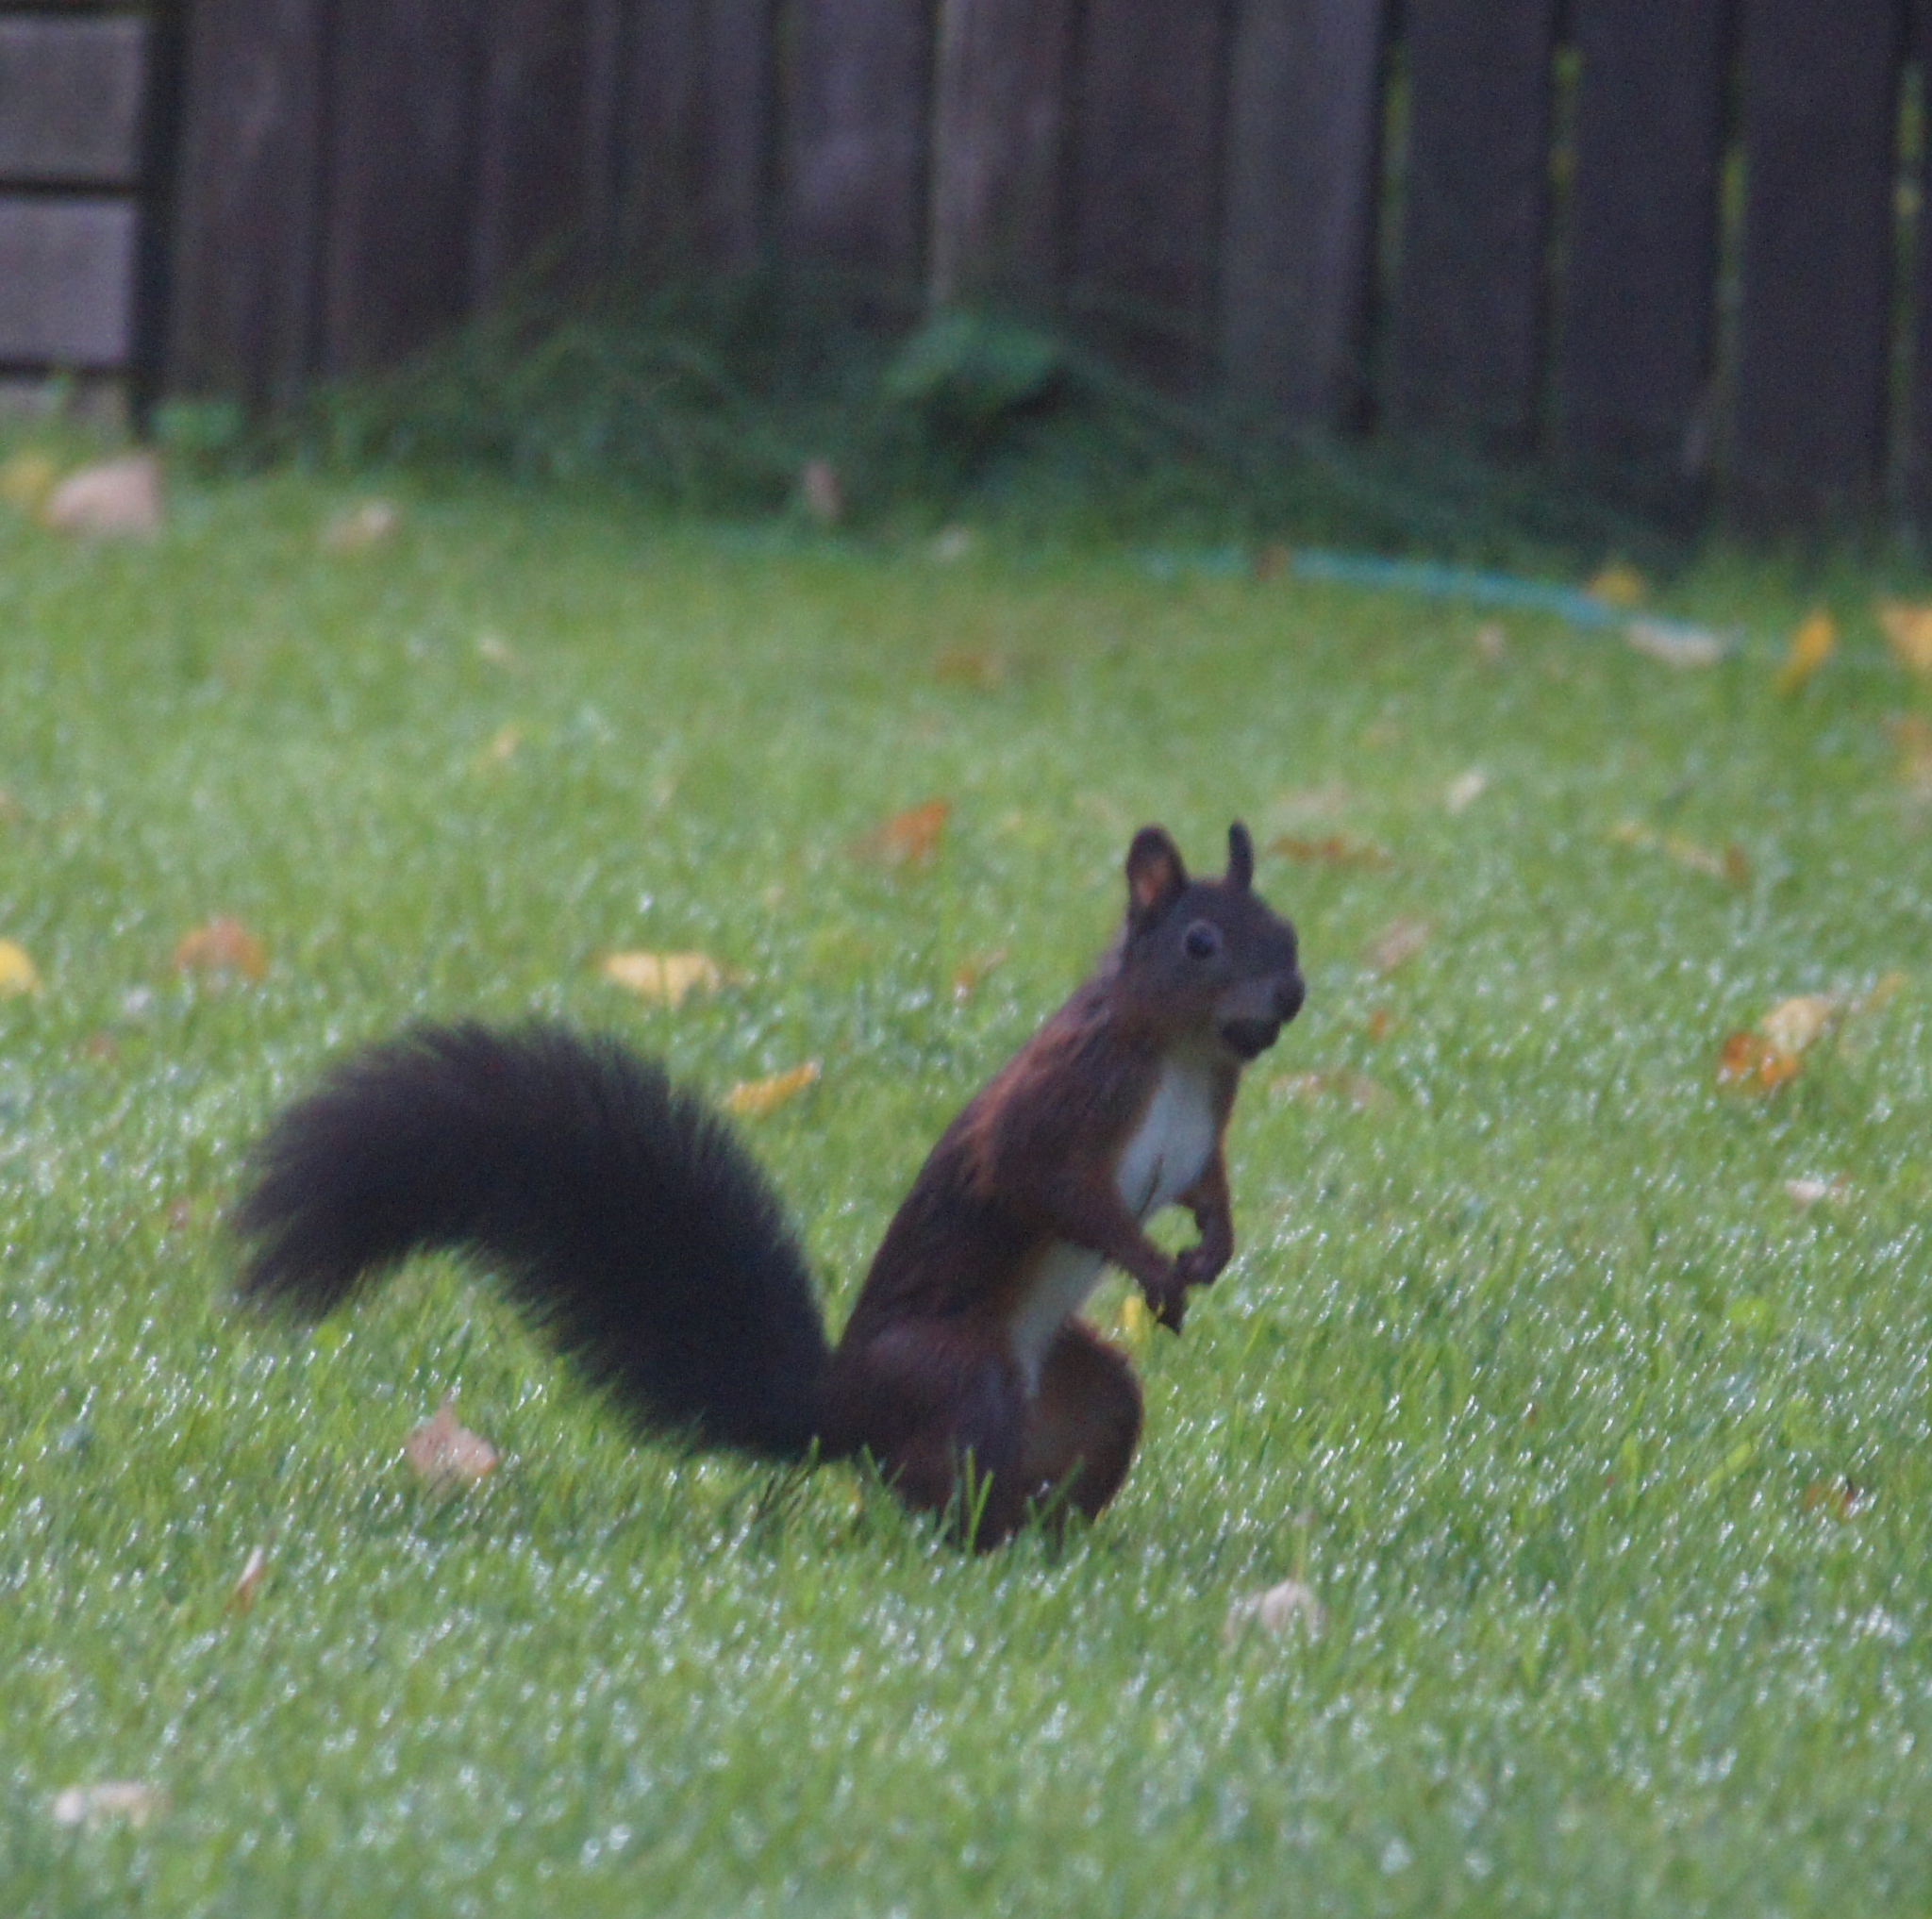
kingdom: Animalia
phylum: Chordata
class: Mammalia
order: Rodentia
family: Sciuridae
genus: Sciurus
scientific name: Sciurus vulgaris
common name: Eurasian red squirrel
